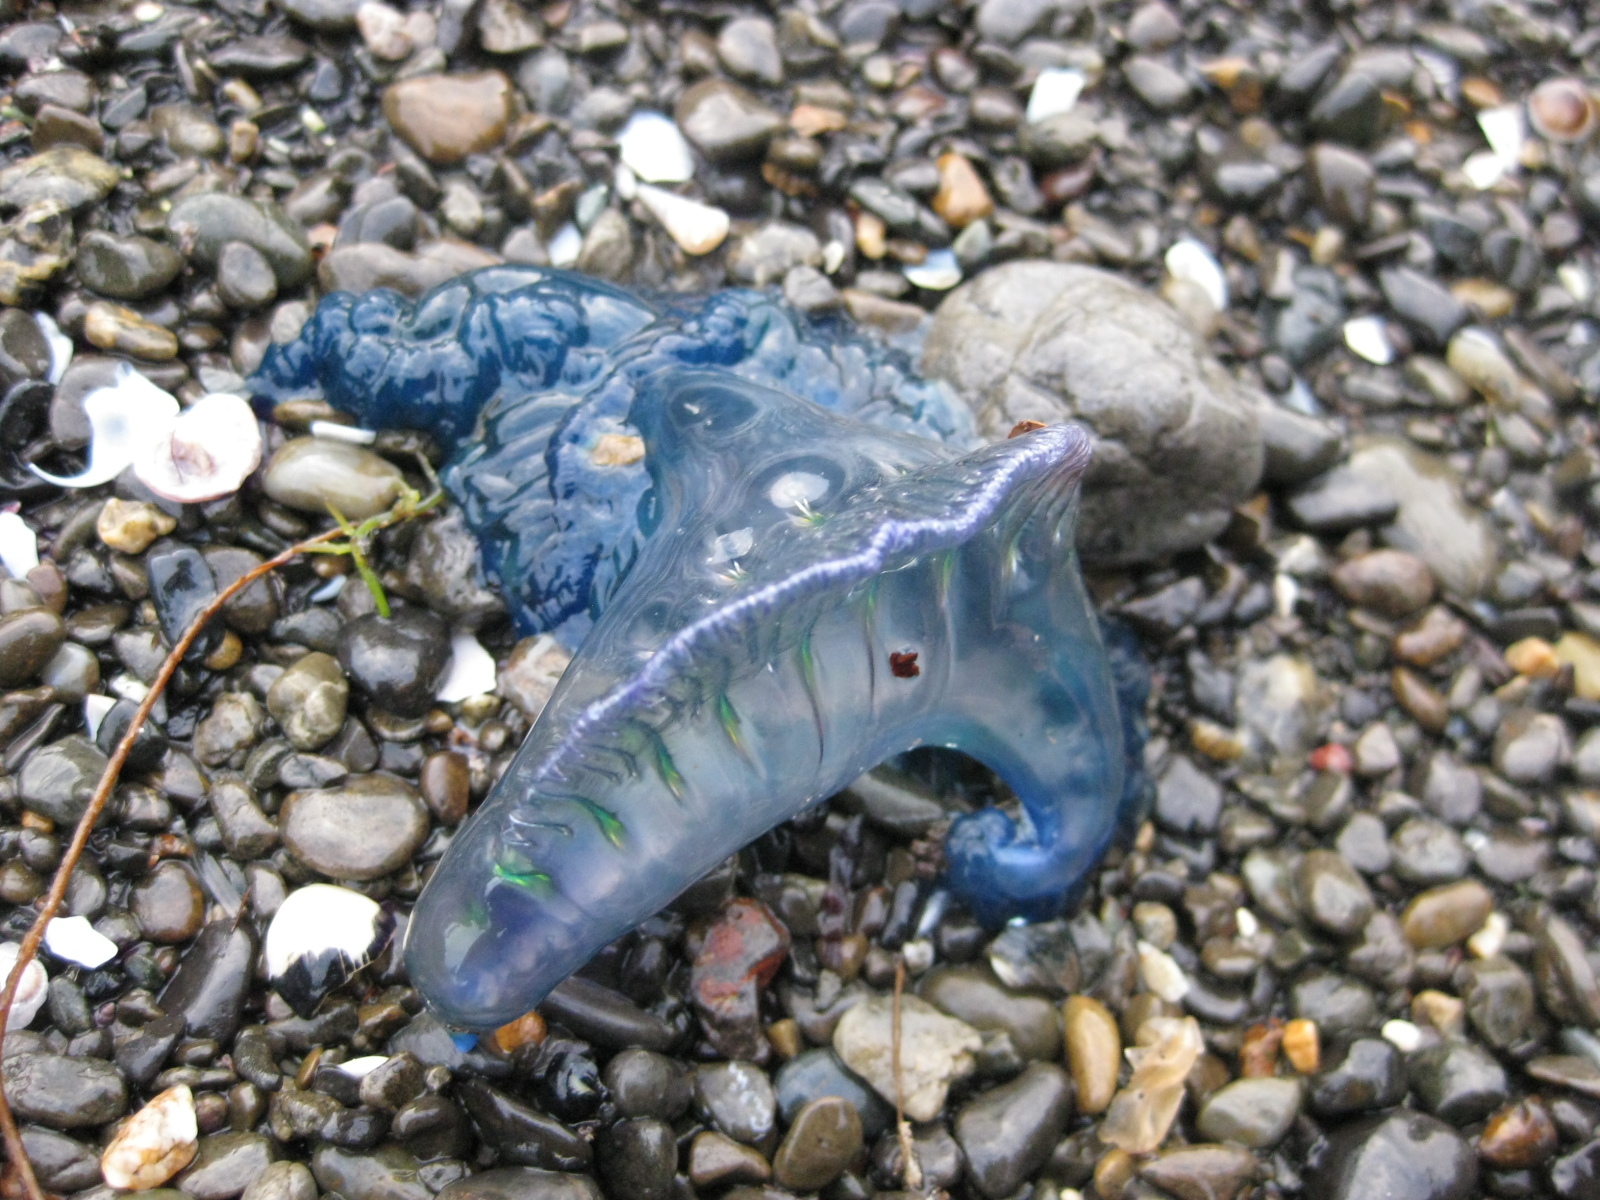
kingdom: Animalia
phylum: Cnidaria
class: Hydrozoa
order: Siphonophorae
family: Physaliidae
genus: Physalia
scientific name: Physalia physalis
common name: Portuguese man-of-war
